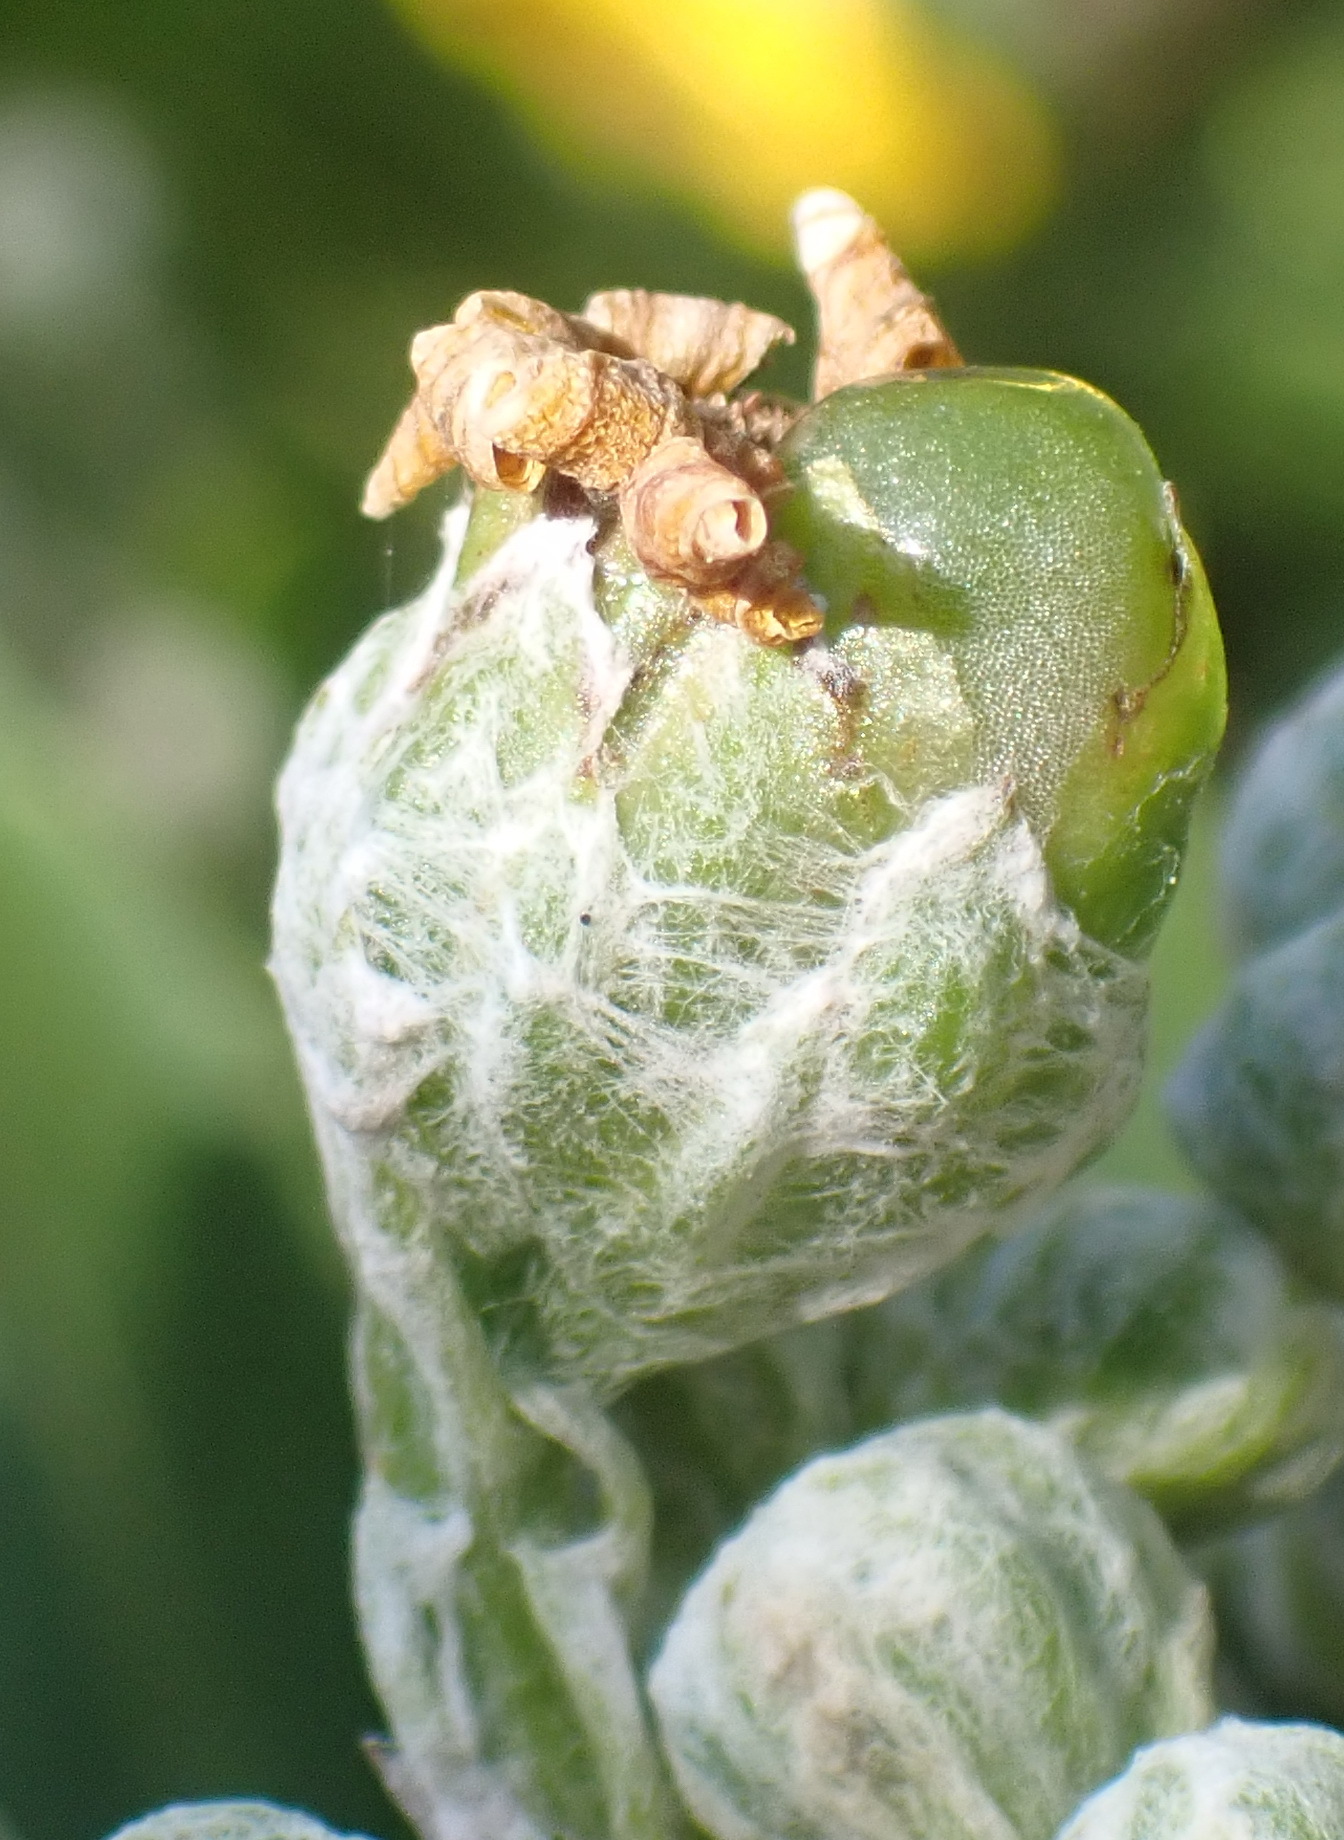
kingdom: Plantae
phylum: Tracheophyta
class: Magnoliopsida
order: Asterales
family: Asteraceae
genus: Osteospermum
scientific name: Osteospermum moniliferum
